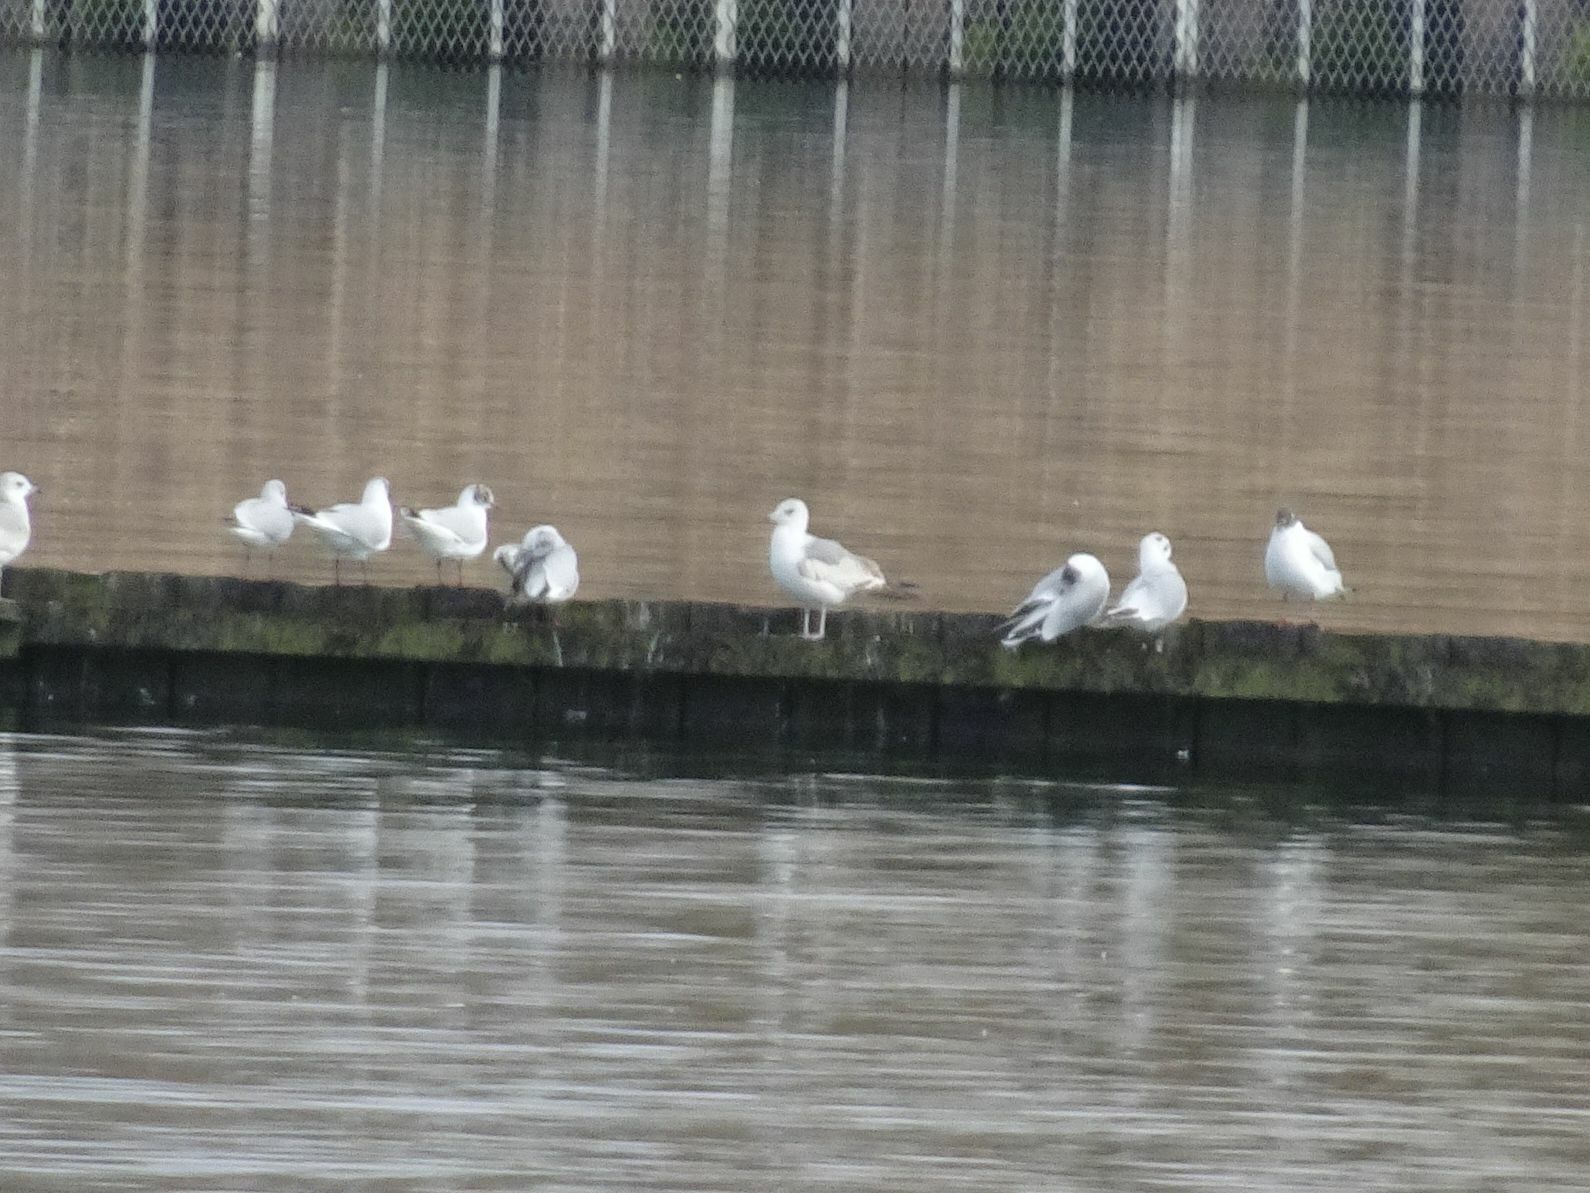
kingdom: Animalia
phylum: Chordata
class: Aves
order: Charadriiformes
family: Laridae
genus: Larus
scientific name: Larus canus
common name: Mew gull
